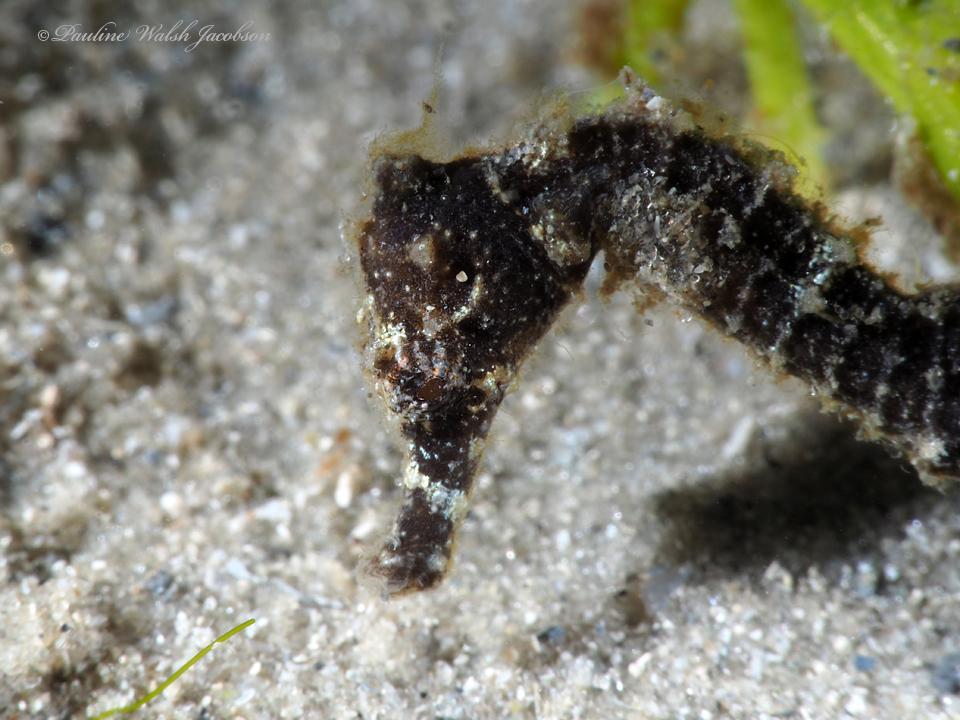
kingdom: Animalia
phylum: Chordata
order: Syngnathiformes
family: Syngnathidae
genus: Hippocampus
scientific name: Hippocampus reidi
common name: Slender seahorse
